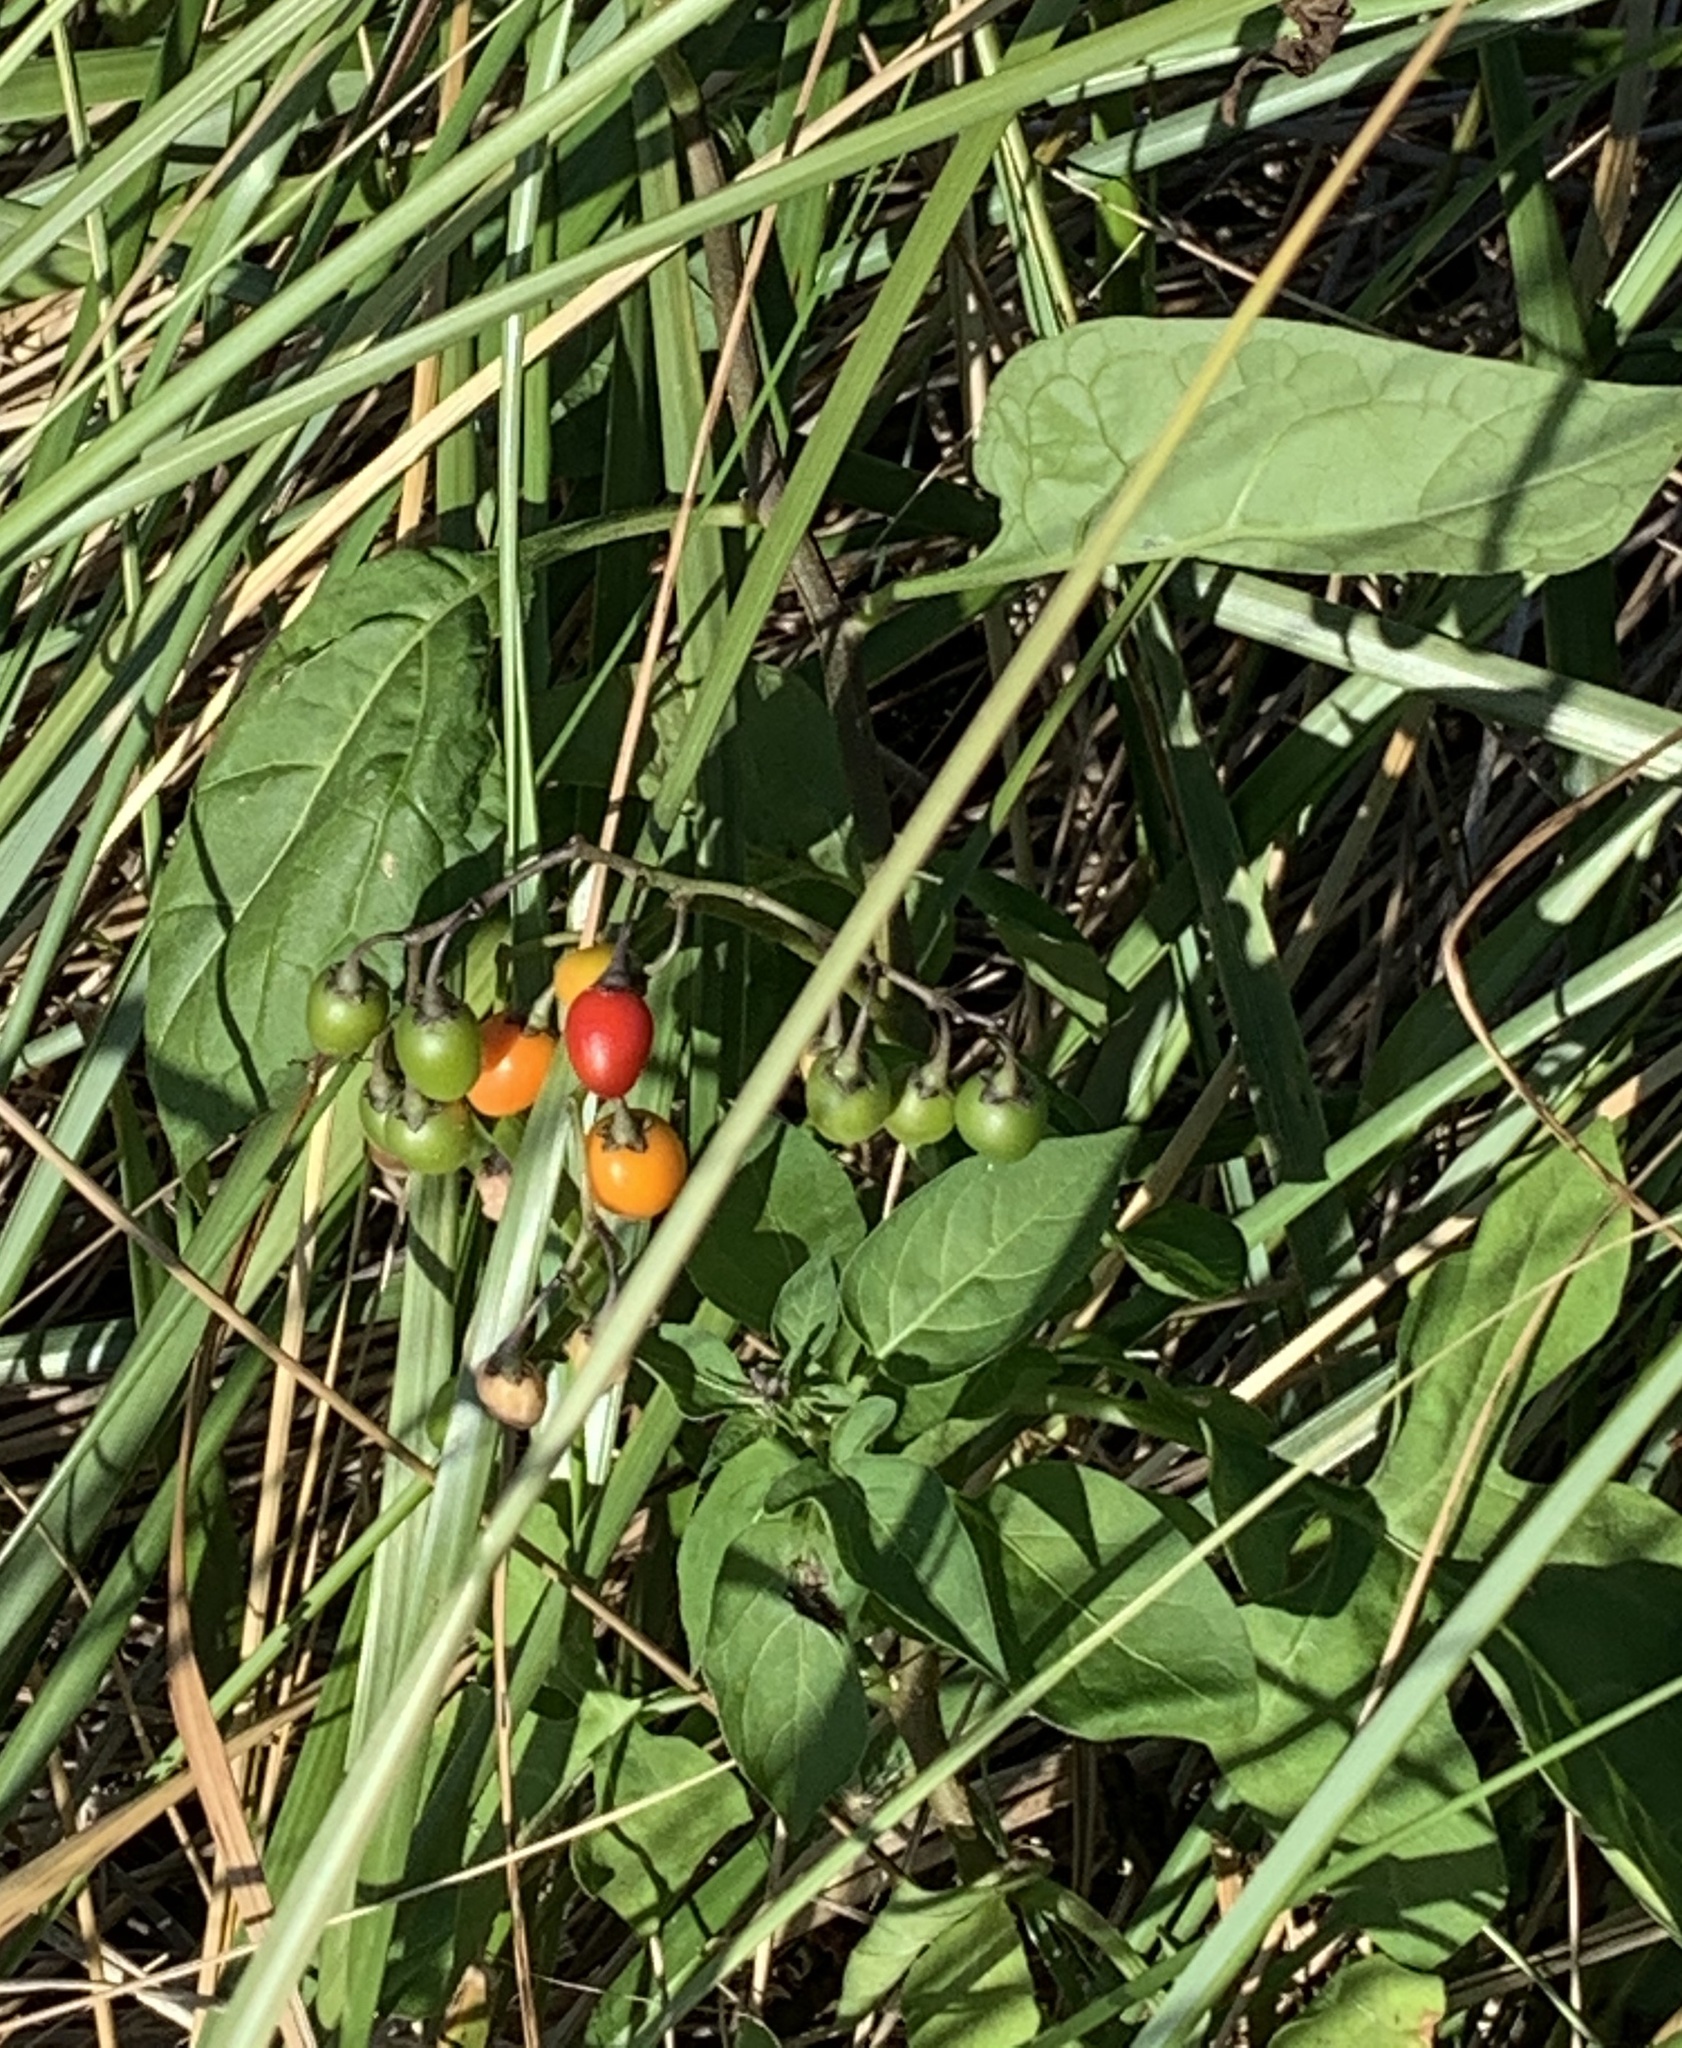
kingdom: Plantae
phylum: Tracheophyta
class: Magnoliopsida
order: Solanales
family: Solanaceae
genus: Solanum
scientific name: Solanum dulcamara
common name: Climbing nightshade
